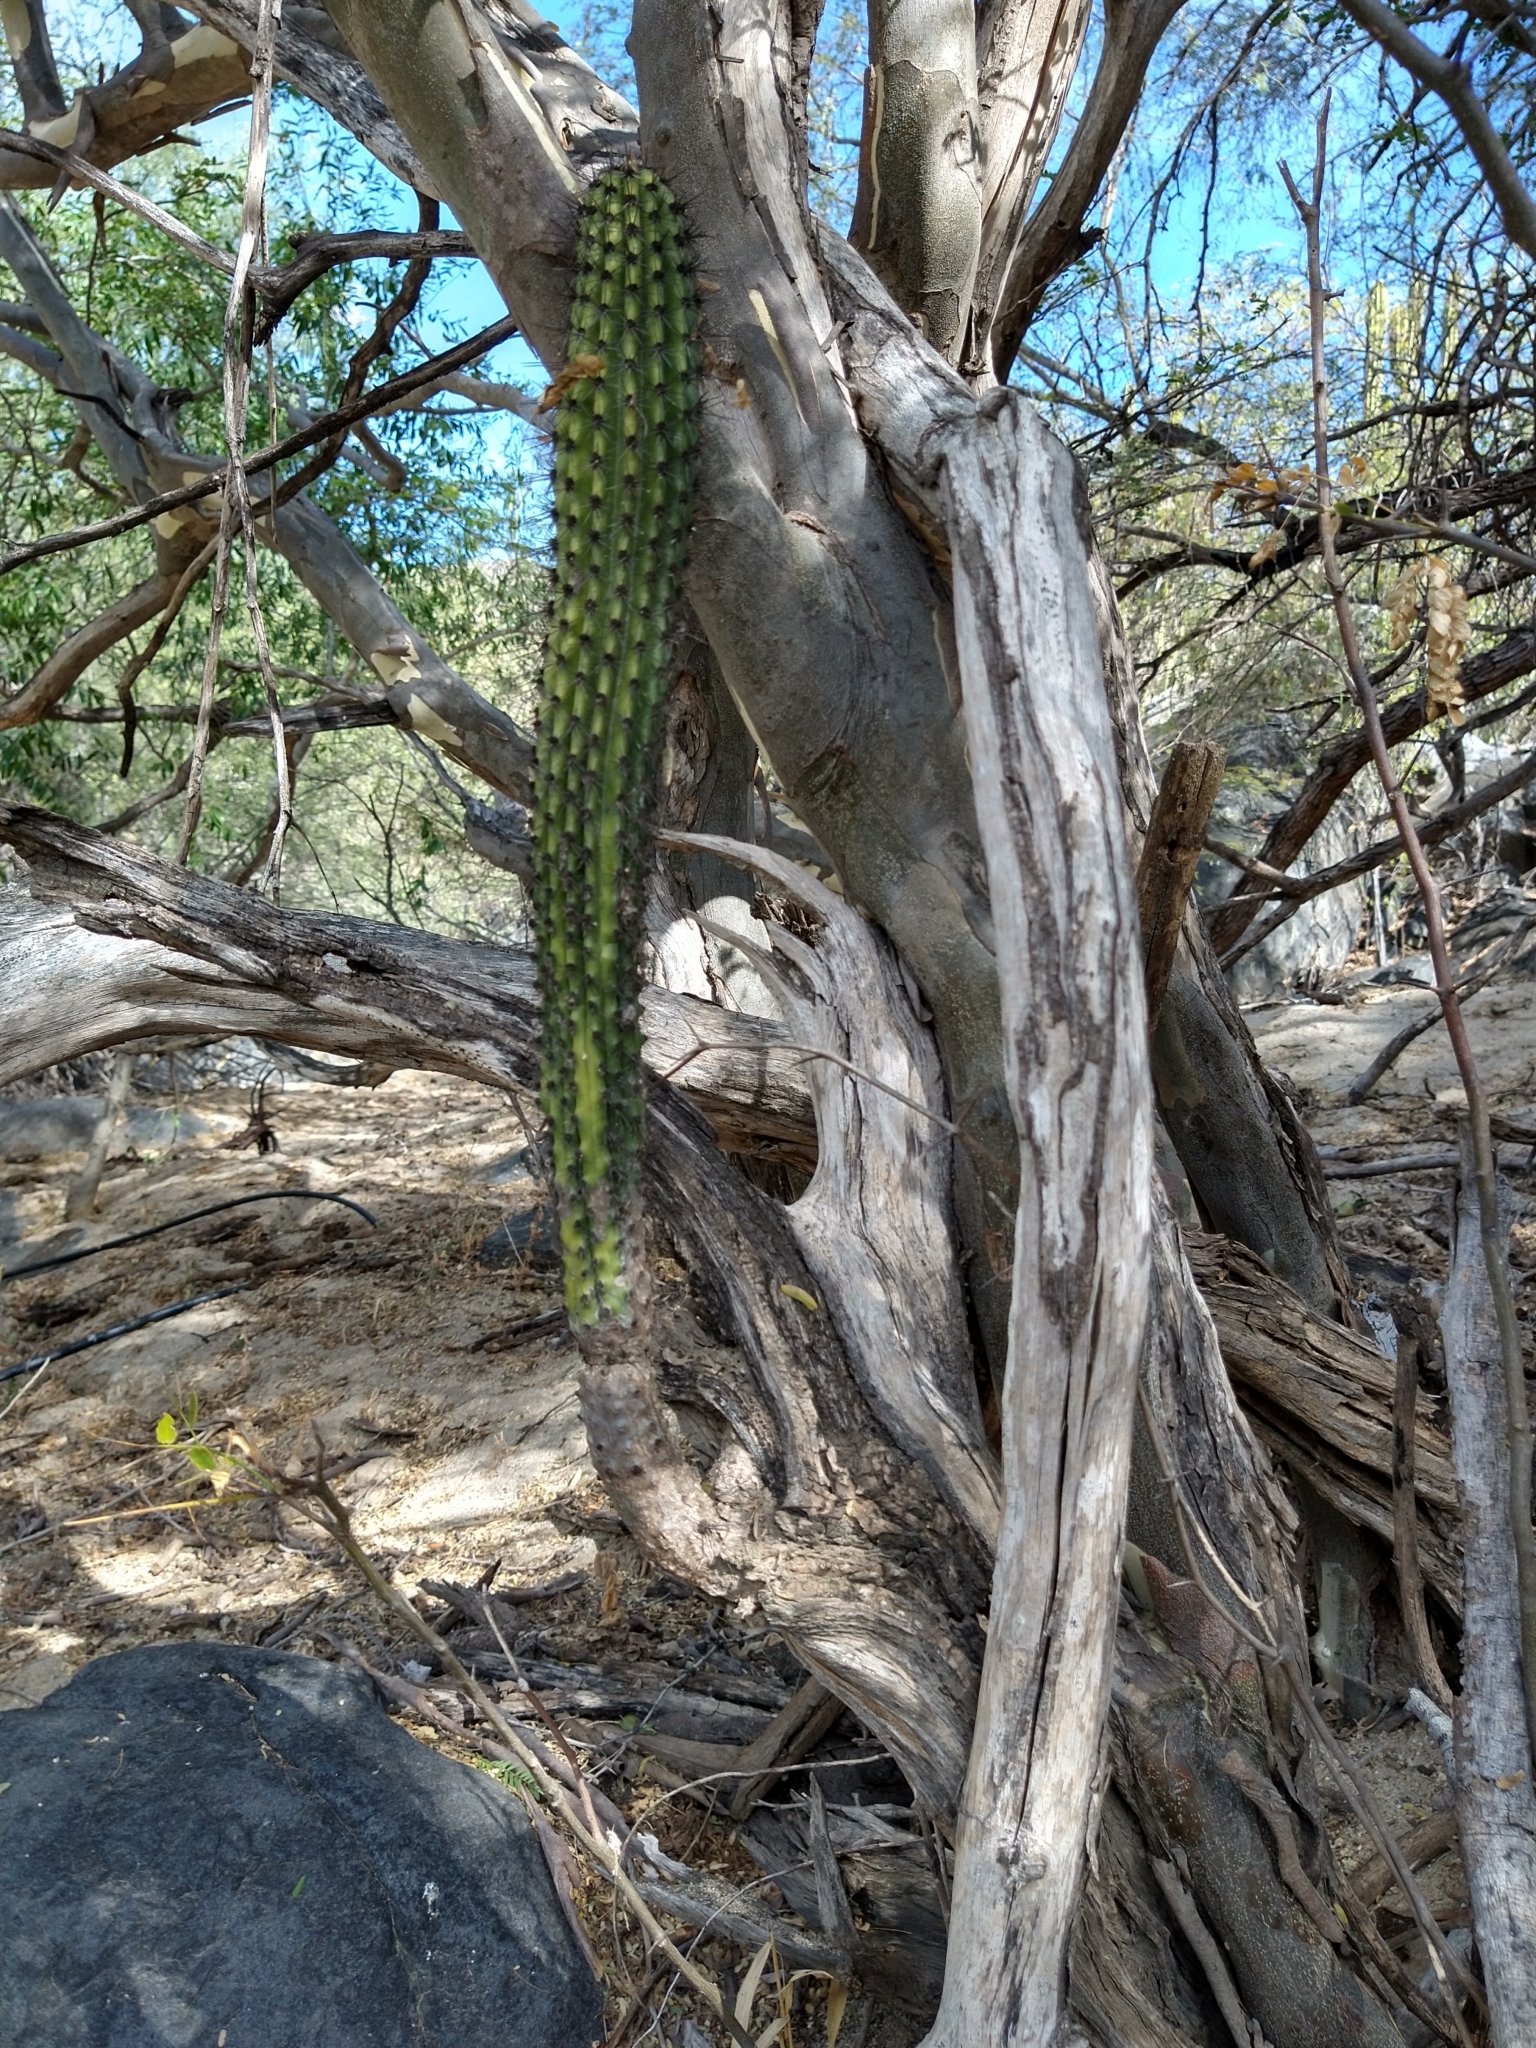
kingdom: Plantae
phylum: Tracheophyta
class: Magnoliopsida
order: Caryophyllales
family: Cactaceae
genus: Stenocereus
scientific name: Stenocereus thurberi
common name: Organ pipe cactus
